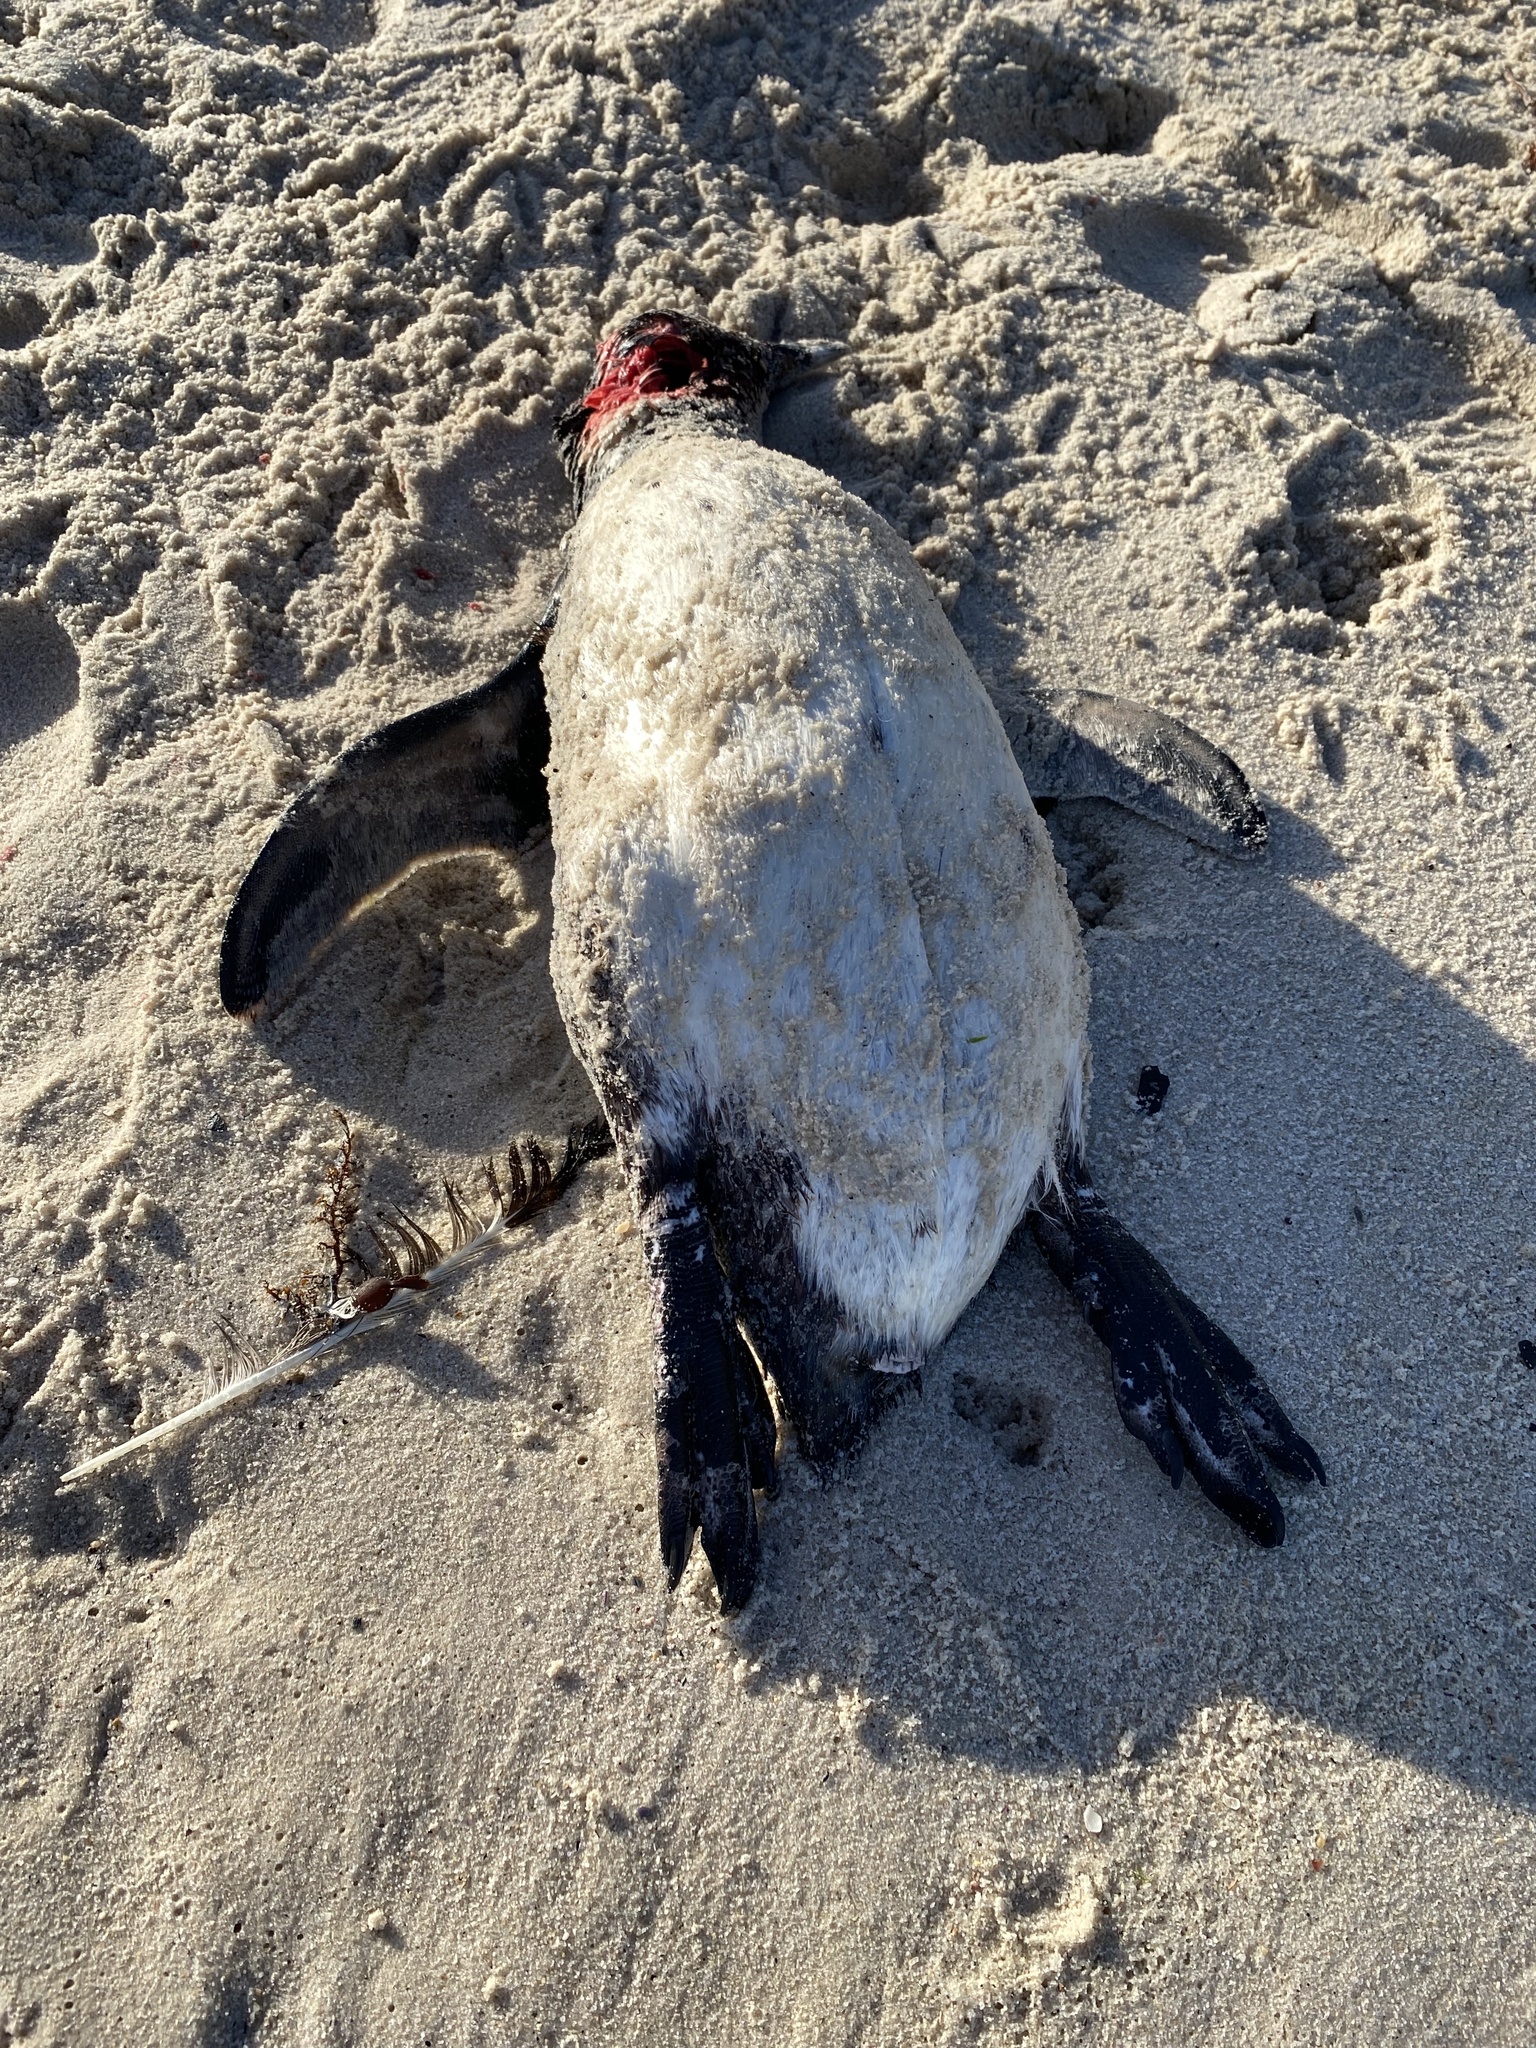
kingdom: Animalia
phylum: Chordata
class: Aves
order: Sphenisciformes
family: Spheniscidae
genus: Spheniscus
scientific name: Spheniscus demersus
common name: African penguin
